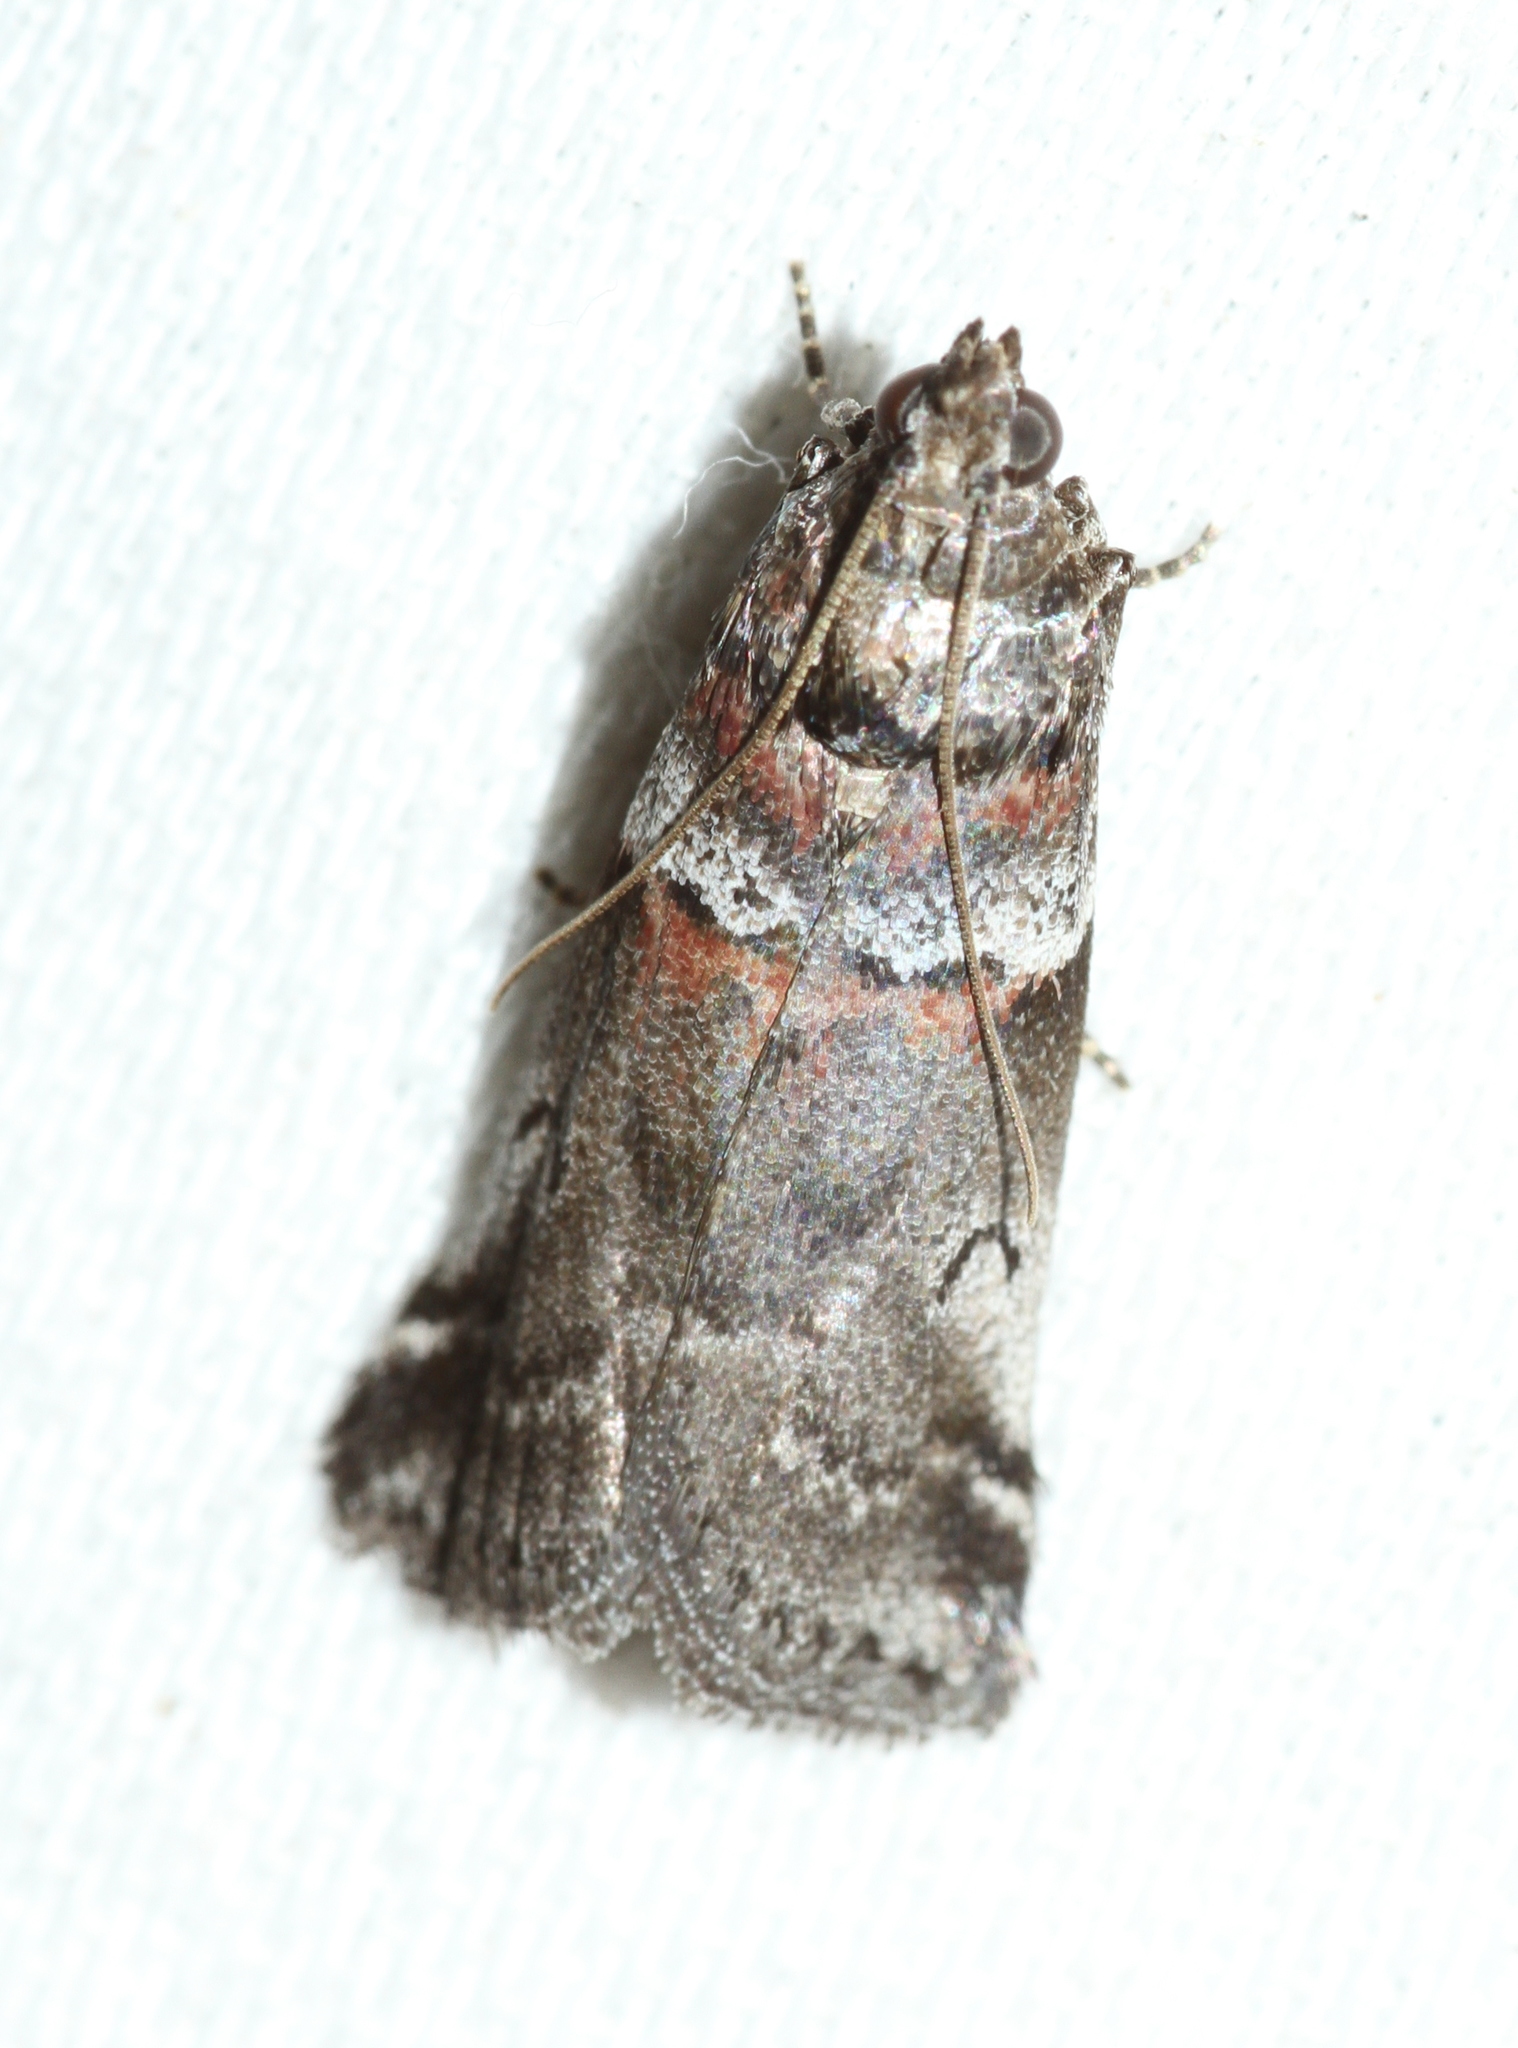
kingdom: Animalia
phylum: Arthropoda
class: Insecta
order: Lepidoptera
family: Pyralidae
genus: Acrobasis
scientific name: Acrobasis legatea
